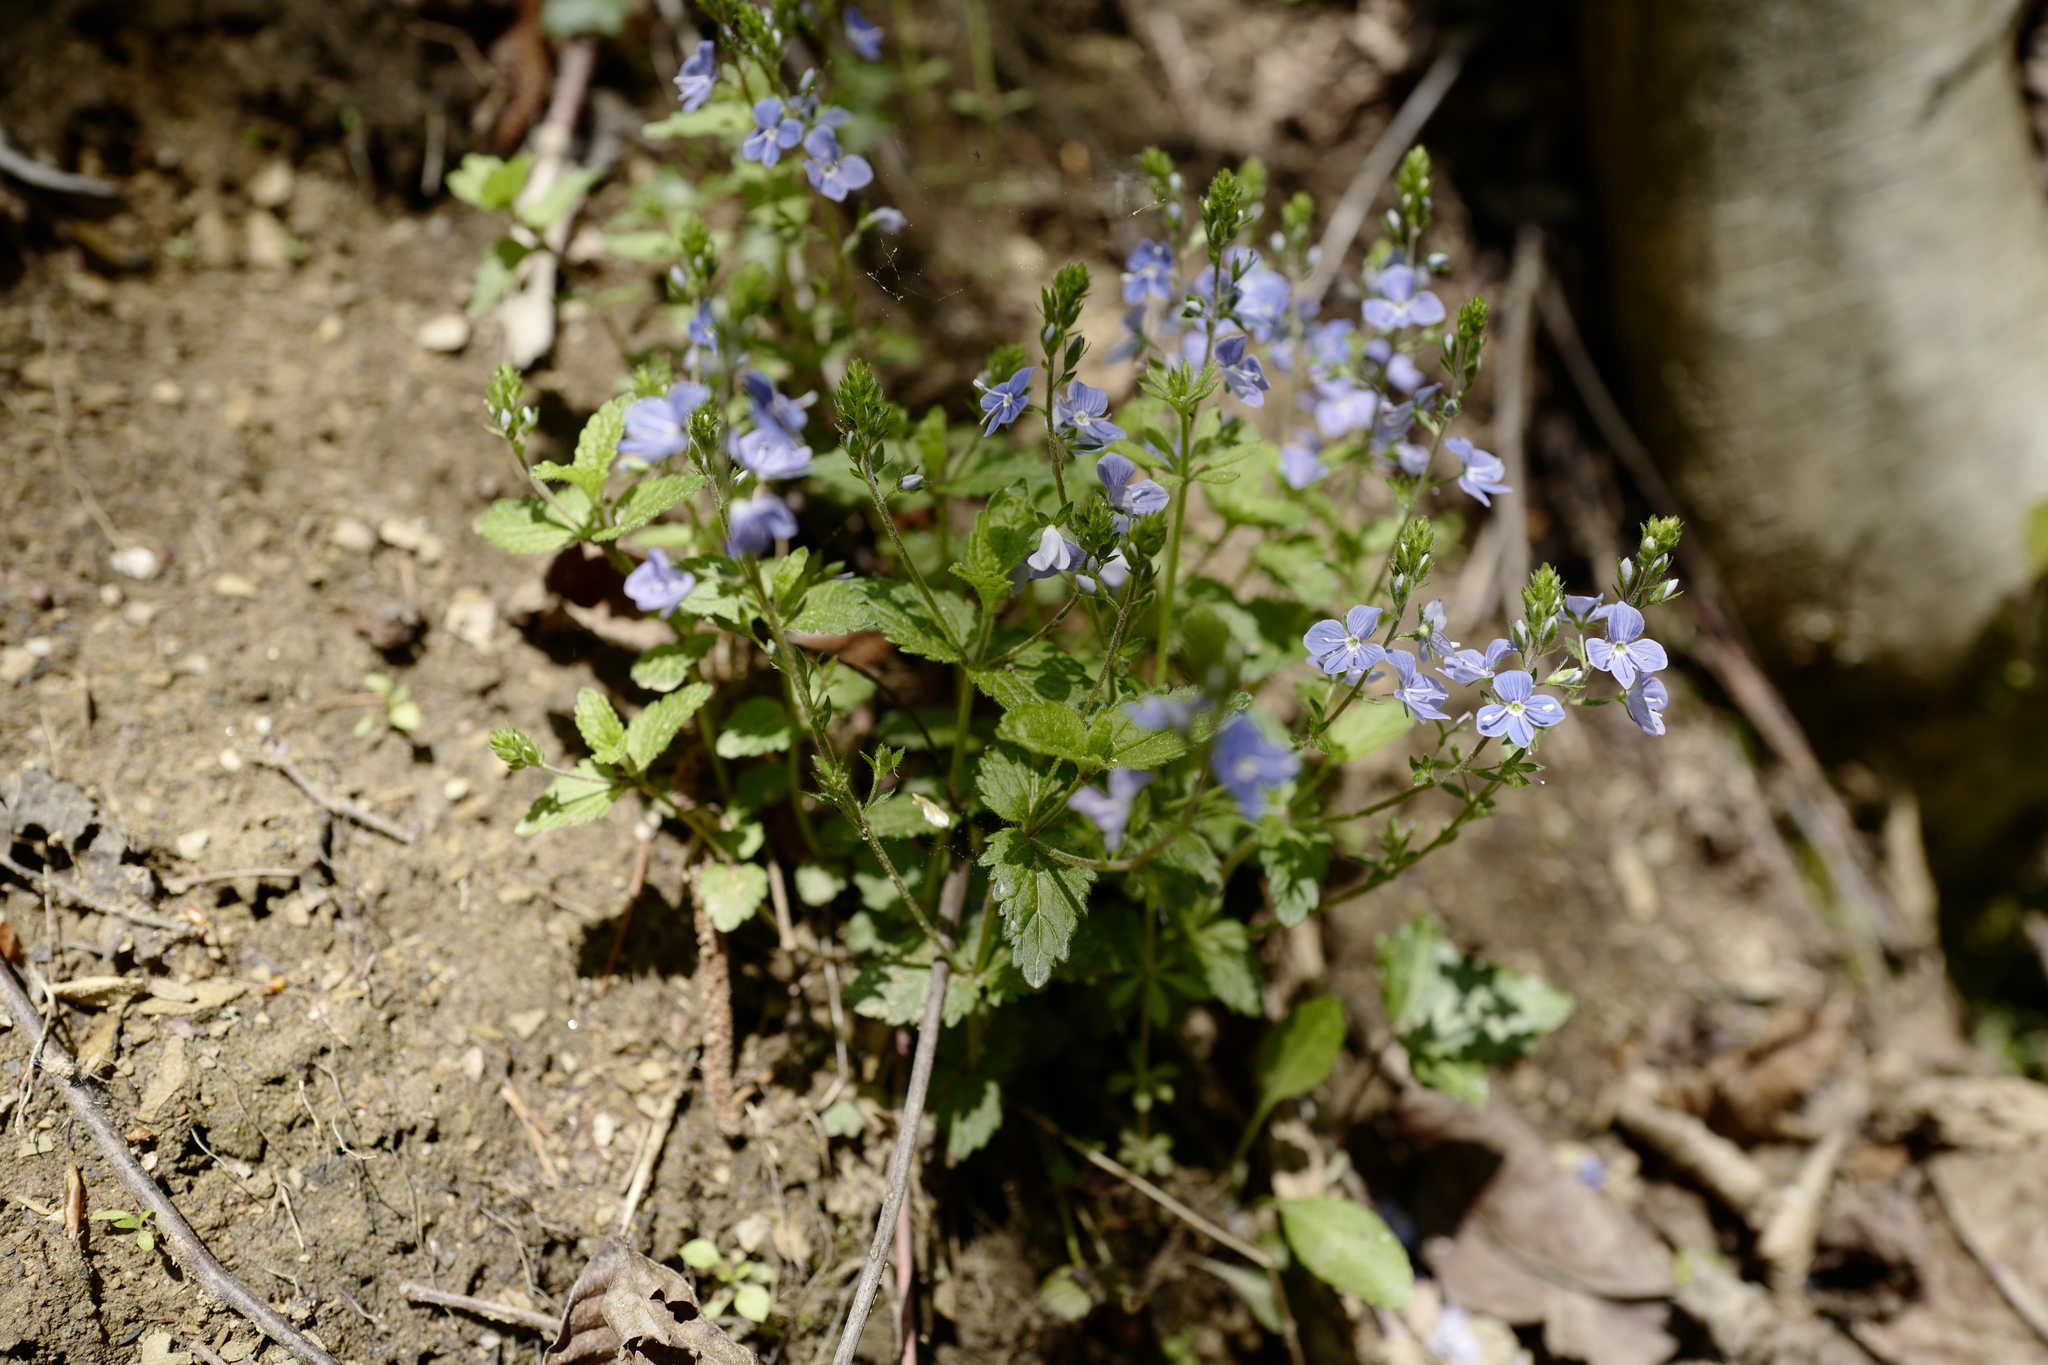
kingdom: Plantae
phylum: Tracheophyta
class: Magnoliopsida
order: Lamiales
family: Plantaginaceae
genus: Veronica
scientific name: Veronica chamaedrys
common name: Germander speedwell
